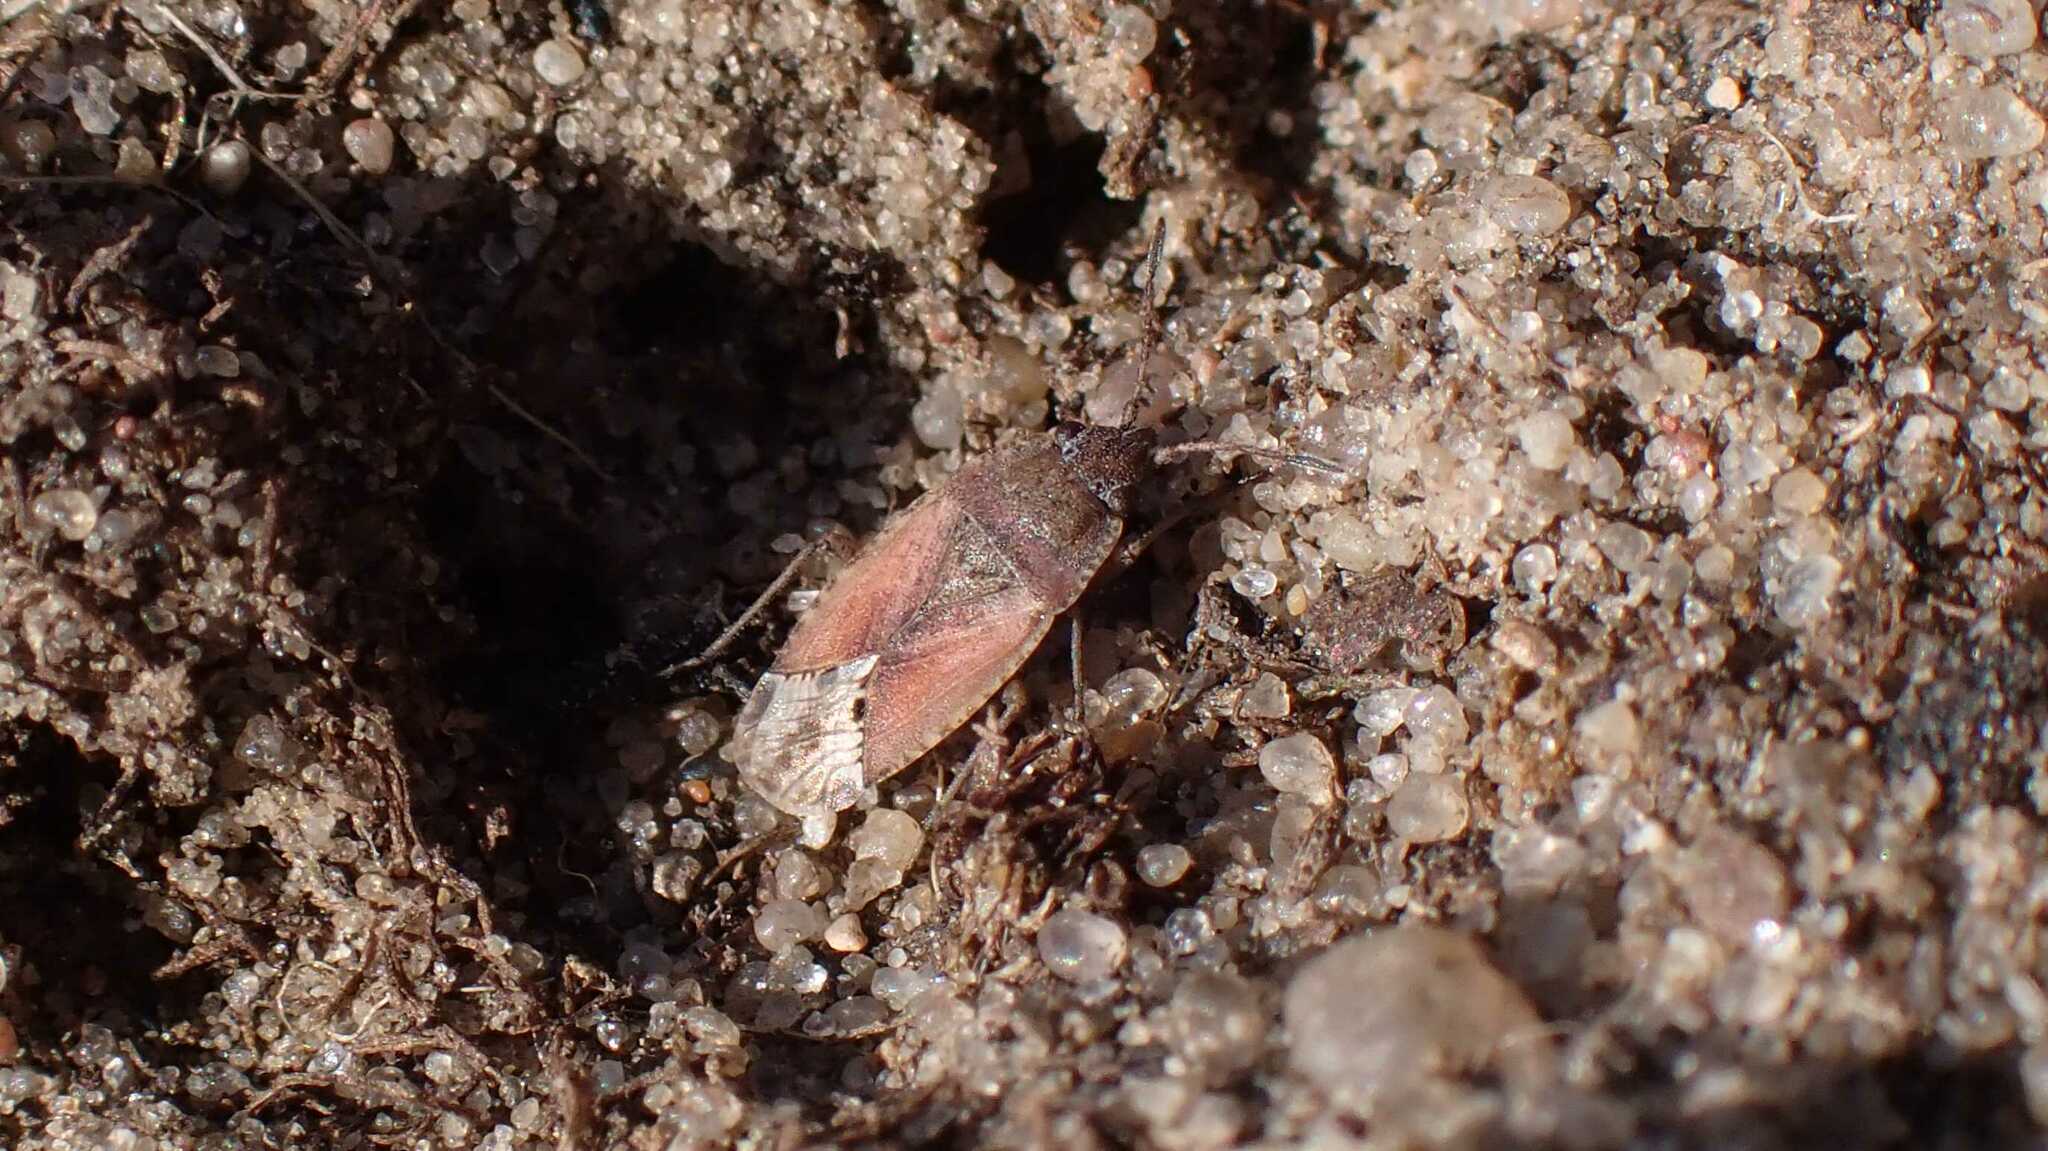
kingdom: Animalia
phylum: Arthropoda
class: Insecta
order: Hemiptera
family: Rhyparochromidae
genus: Gonianotus
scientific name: Gonianotus marginepunctatus
